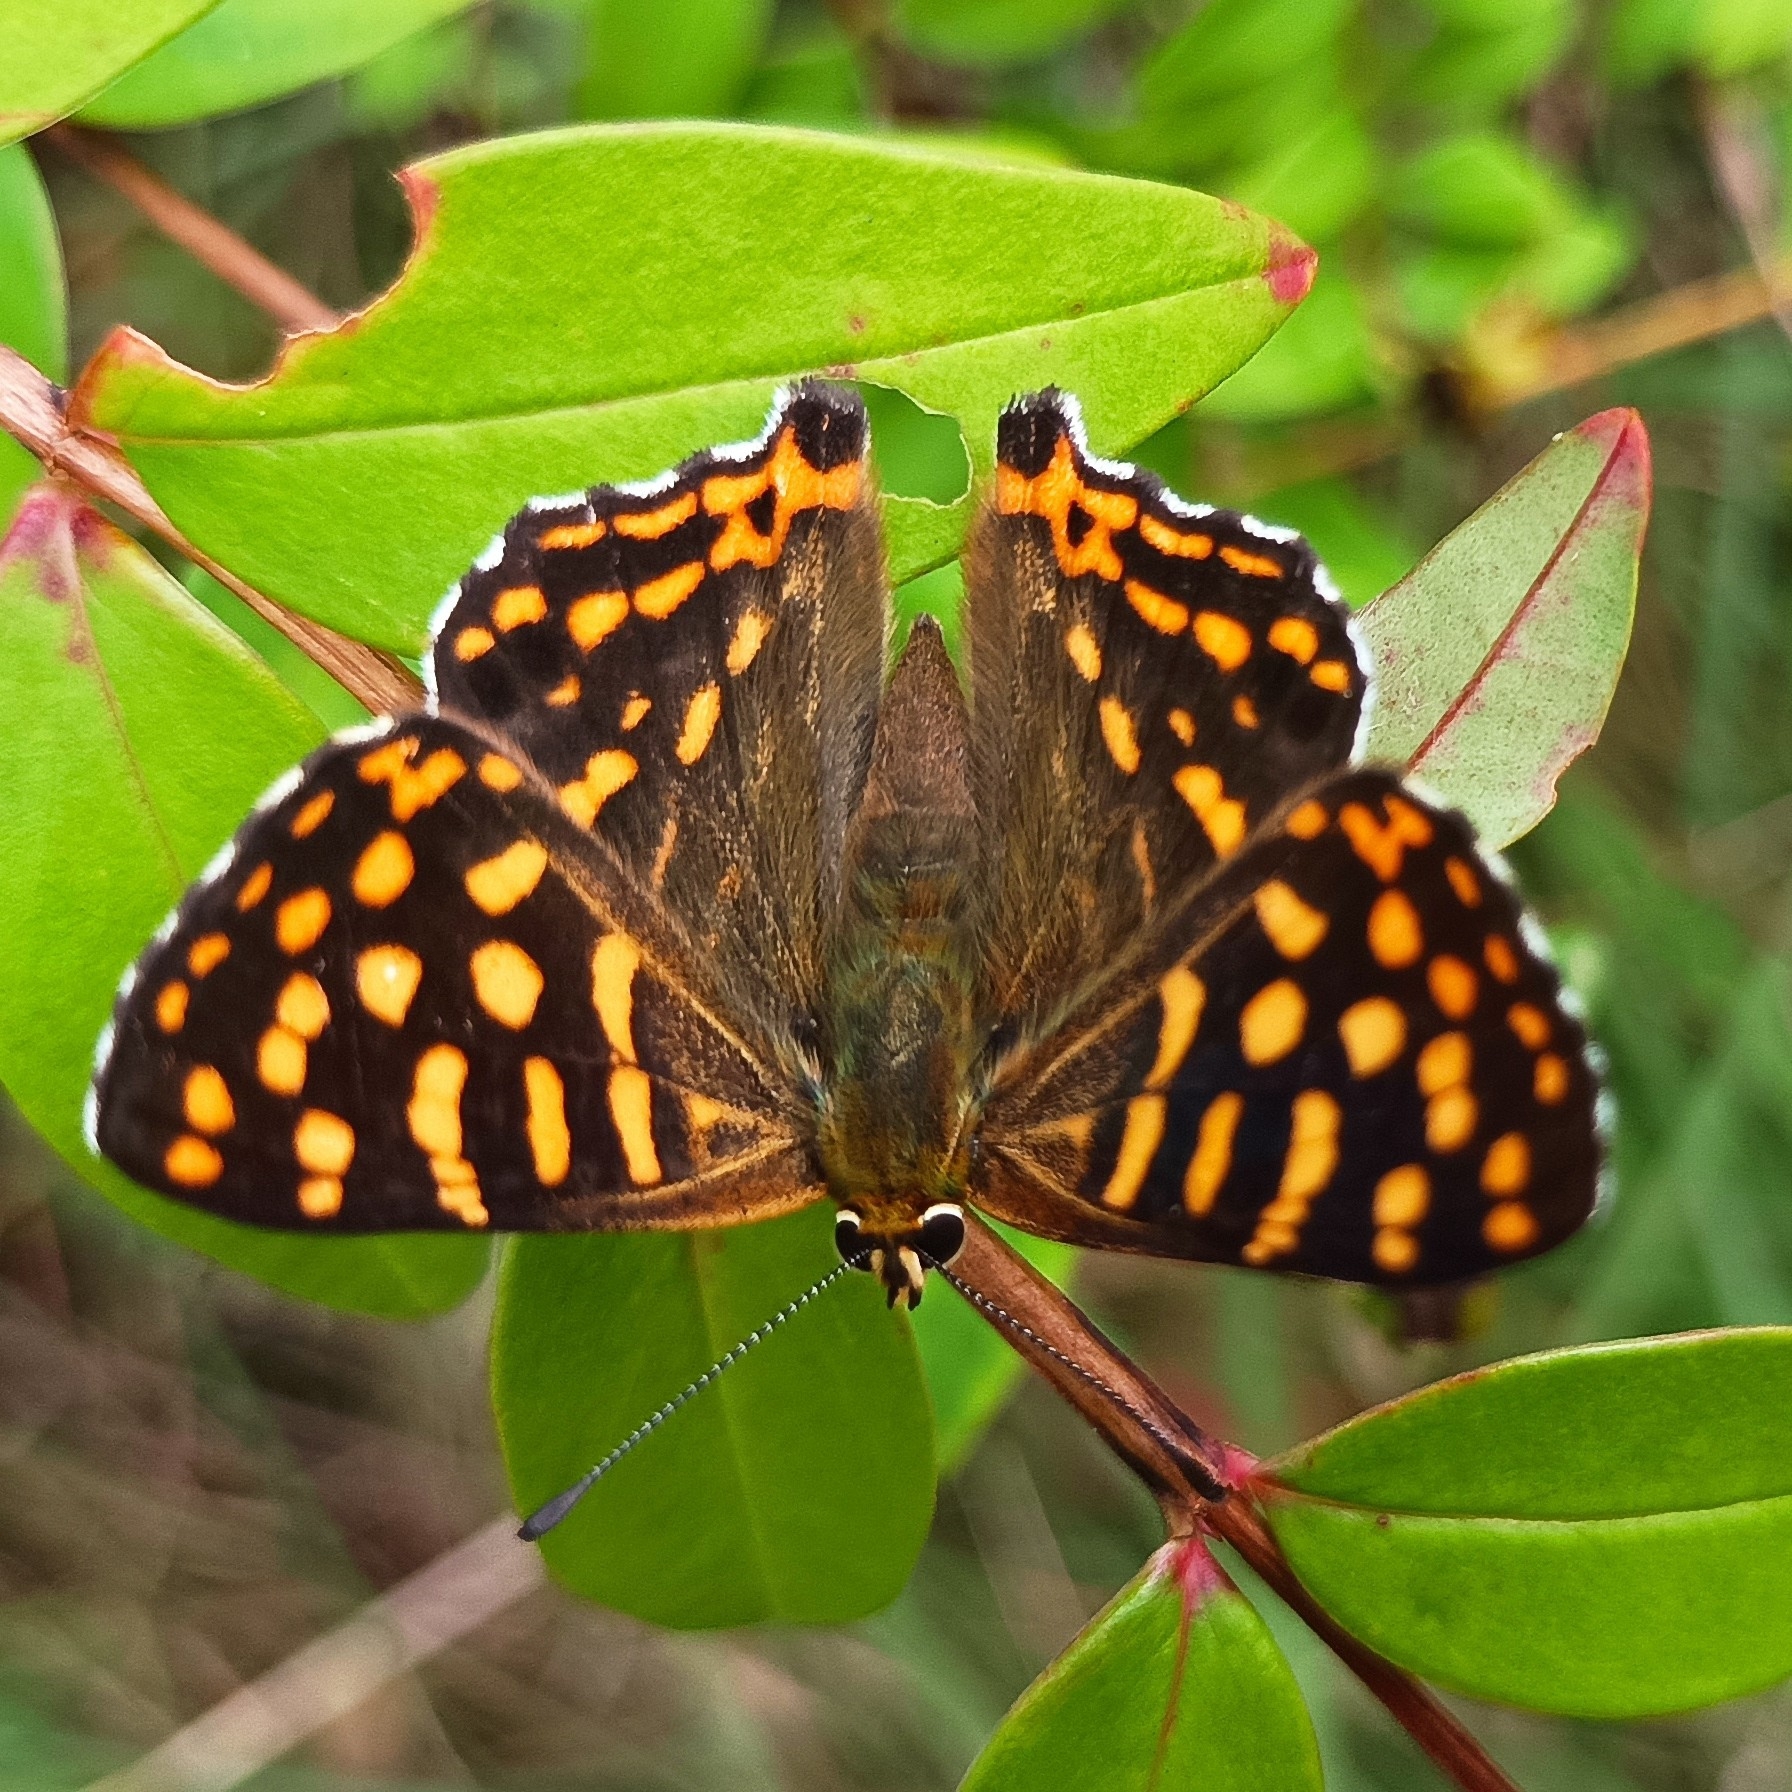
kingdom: Animalia
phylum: Arthropoda
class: Insecta
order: Lepidoptera
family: Lycaenidae
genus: Dodona
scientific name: Dodona durga
